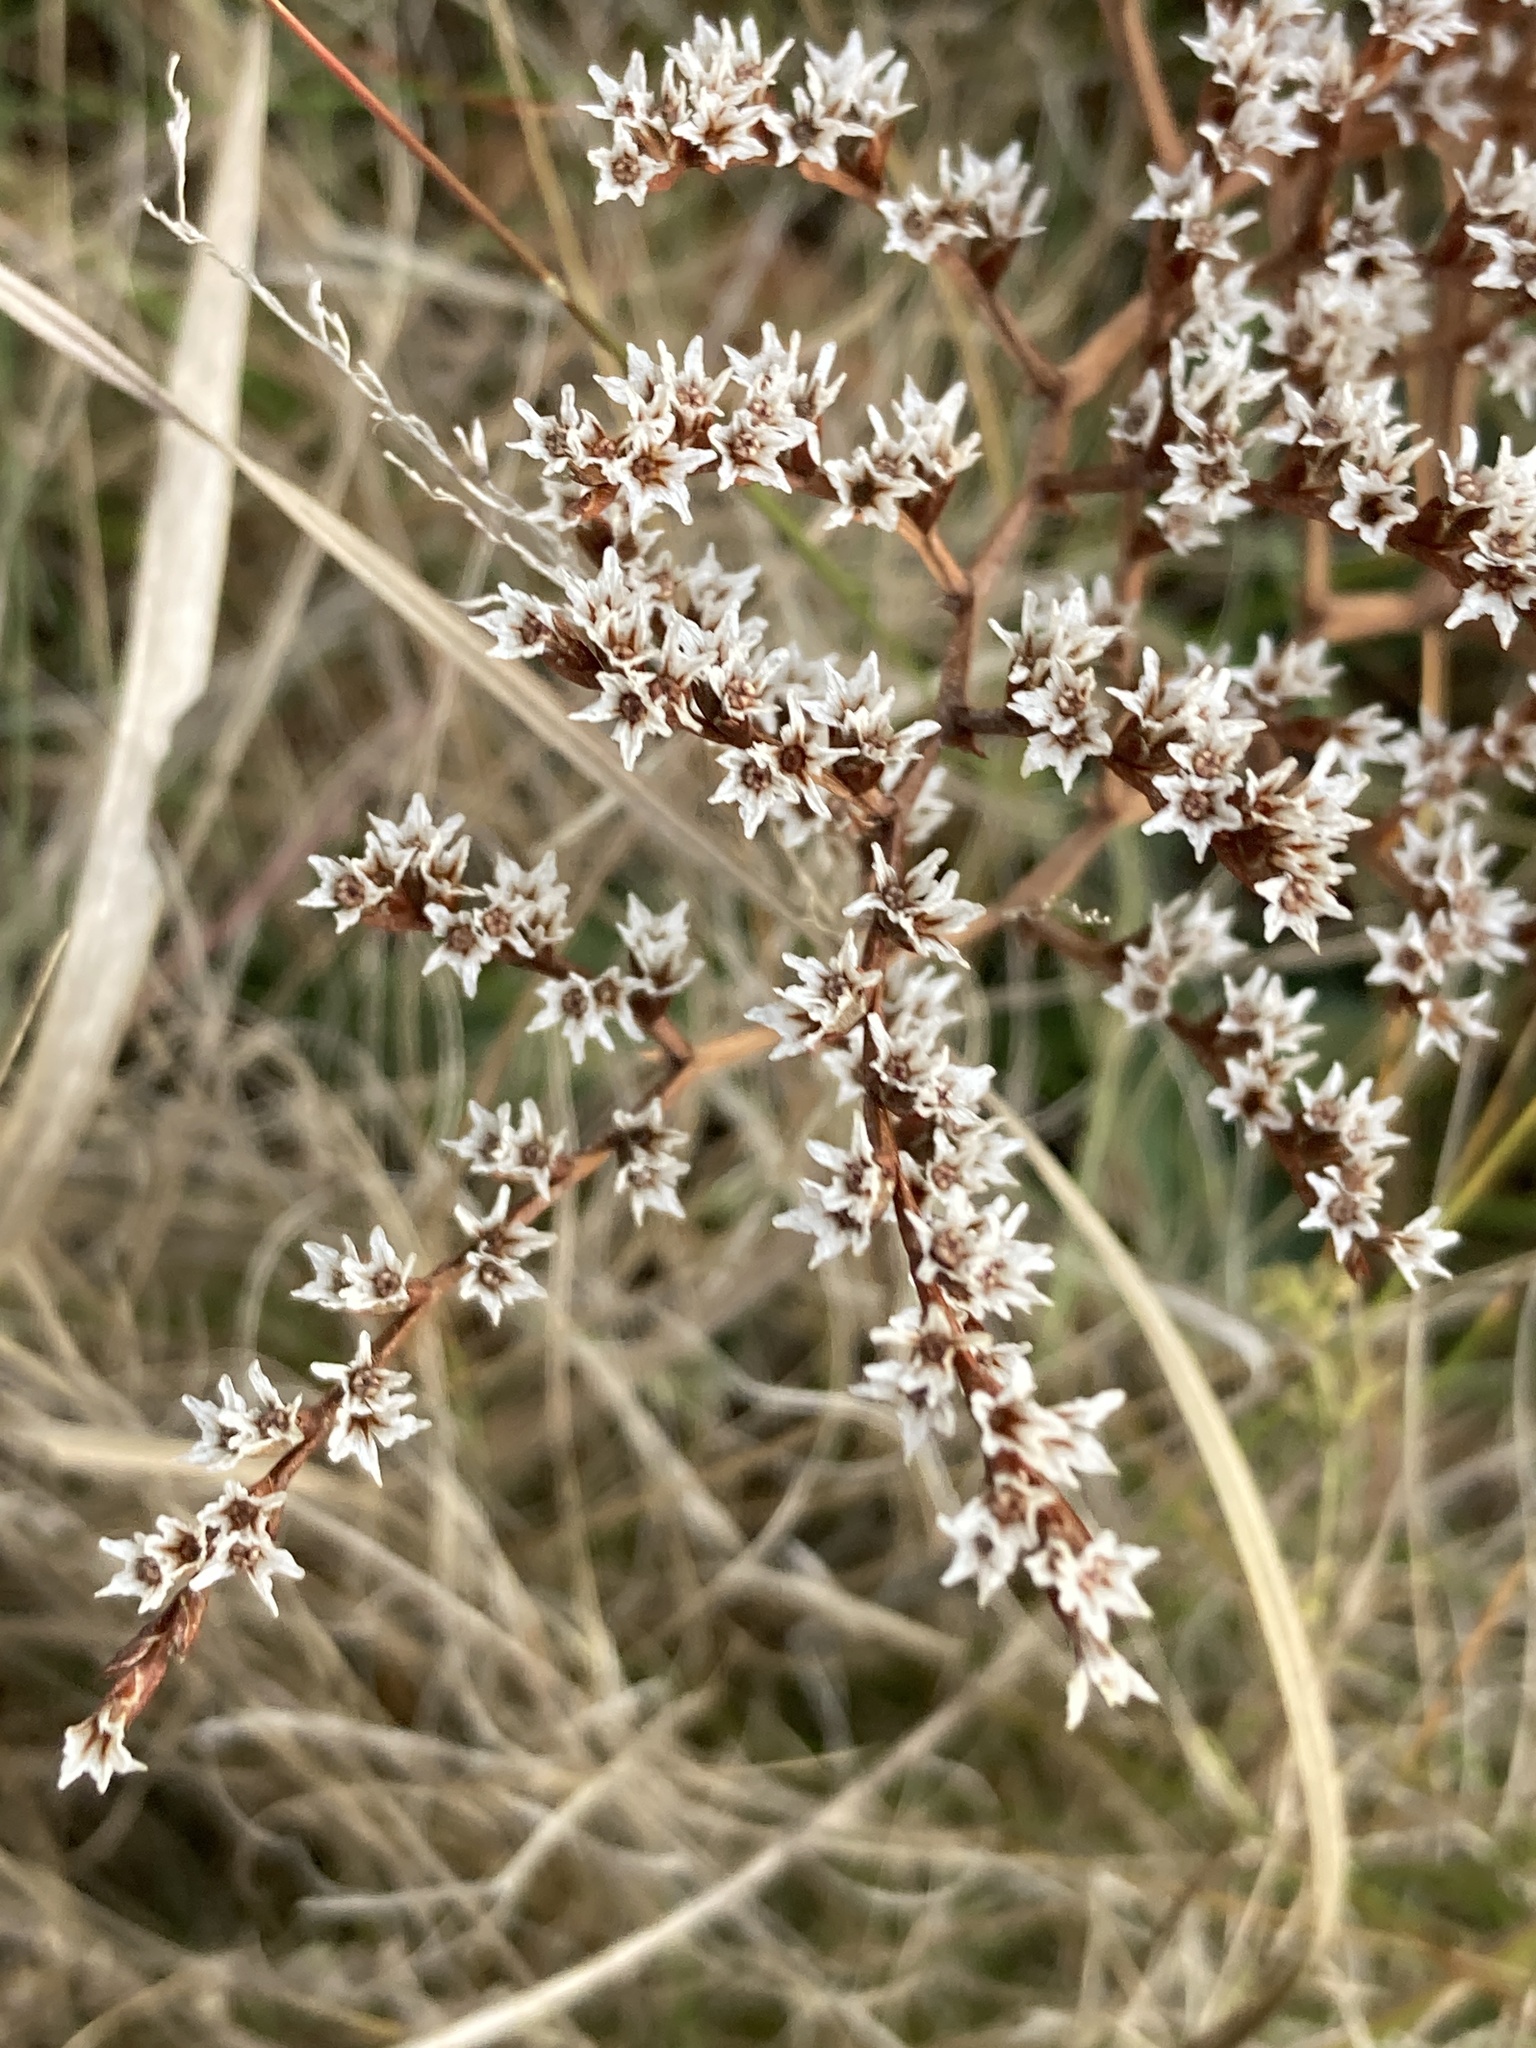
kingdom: Plantae
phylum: Tracheophyta
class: Magnoliopsida
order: Caryophyllales
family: Plumbaginaceae
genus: Goniolimon
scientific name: Goniolimon tataricum
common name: Statice
